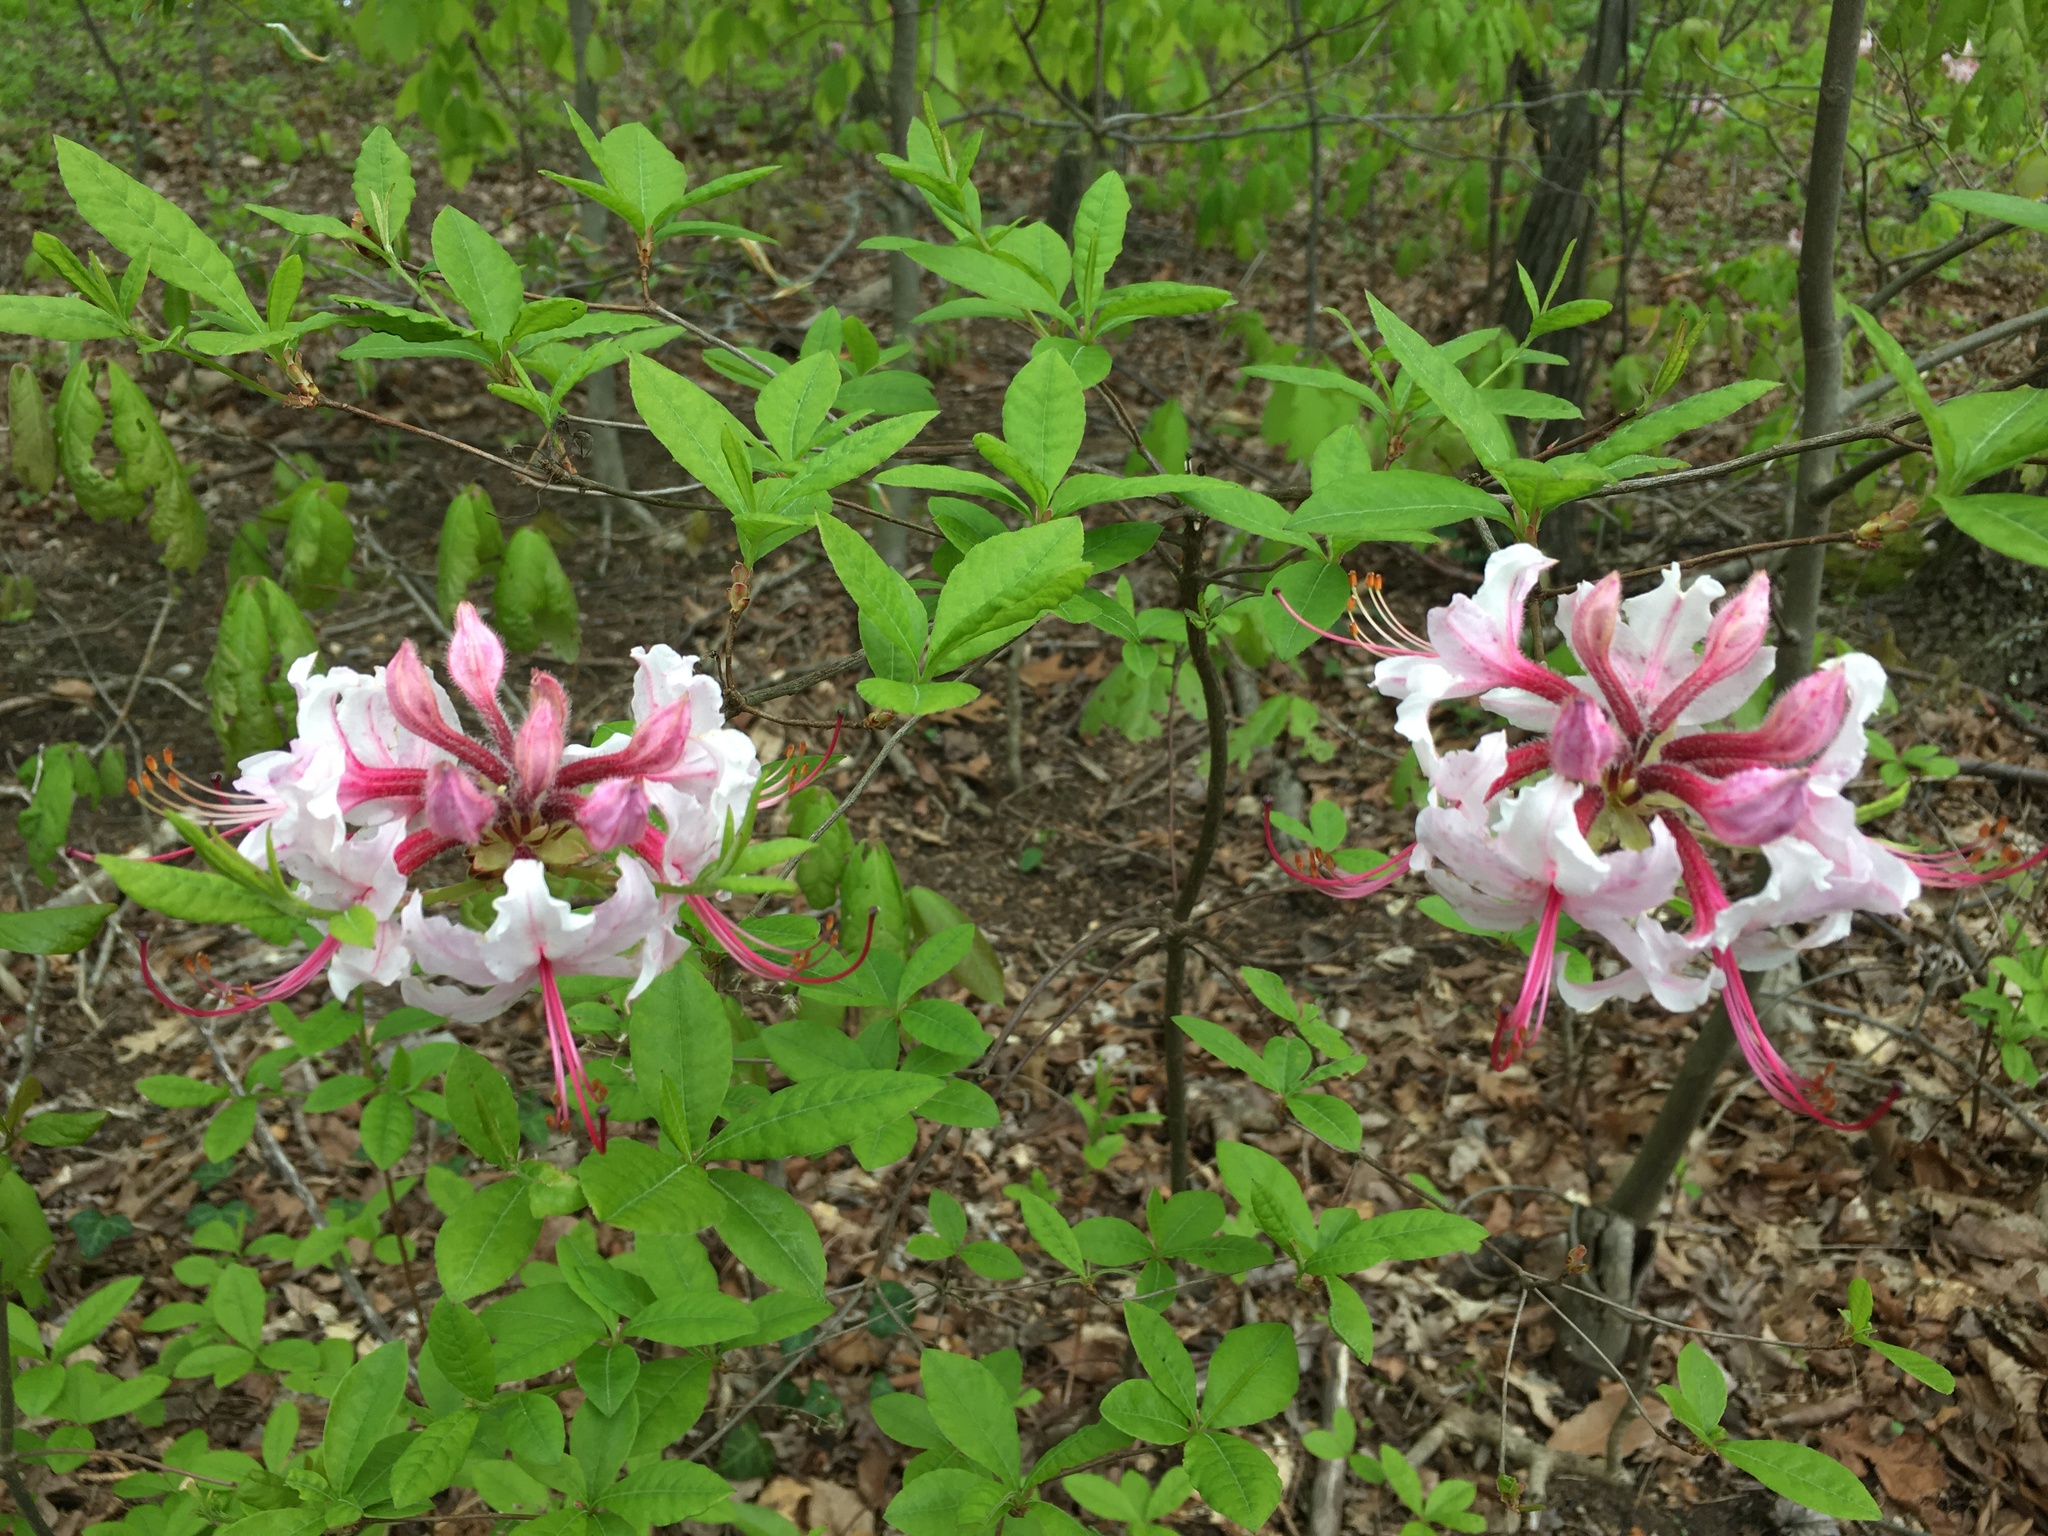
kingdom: Plantae
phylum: Tracheophyta
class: Magnoliopsida
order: Ericales
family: Ericaceae
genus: Rhododendron
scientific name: Rhododendron periclymenoides
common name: Election-pink
